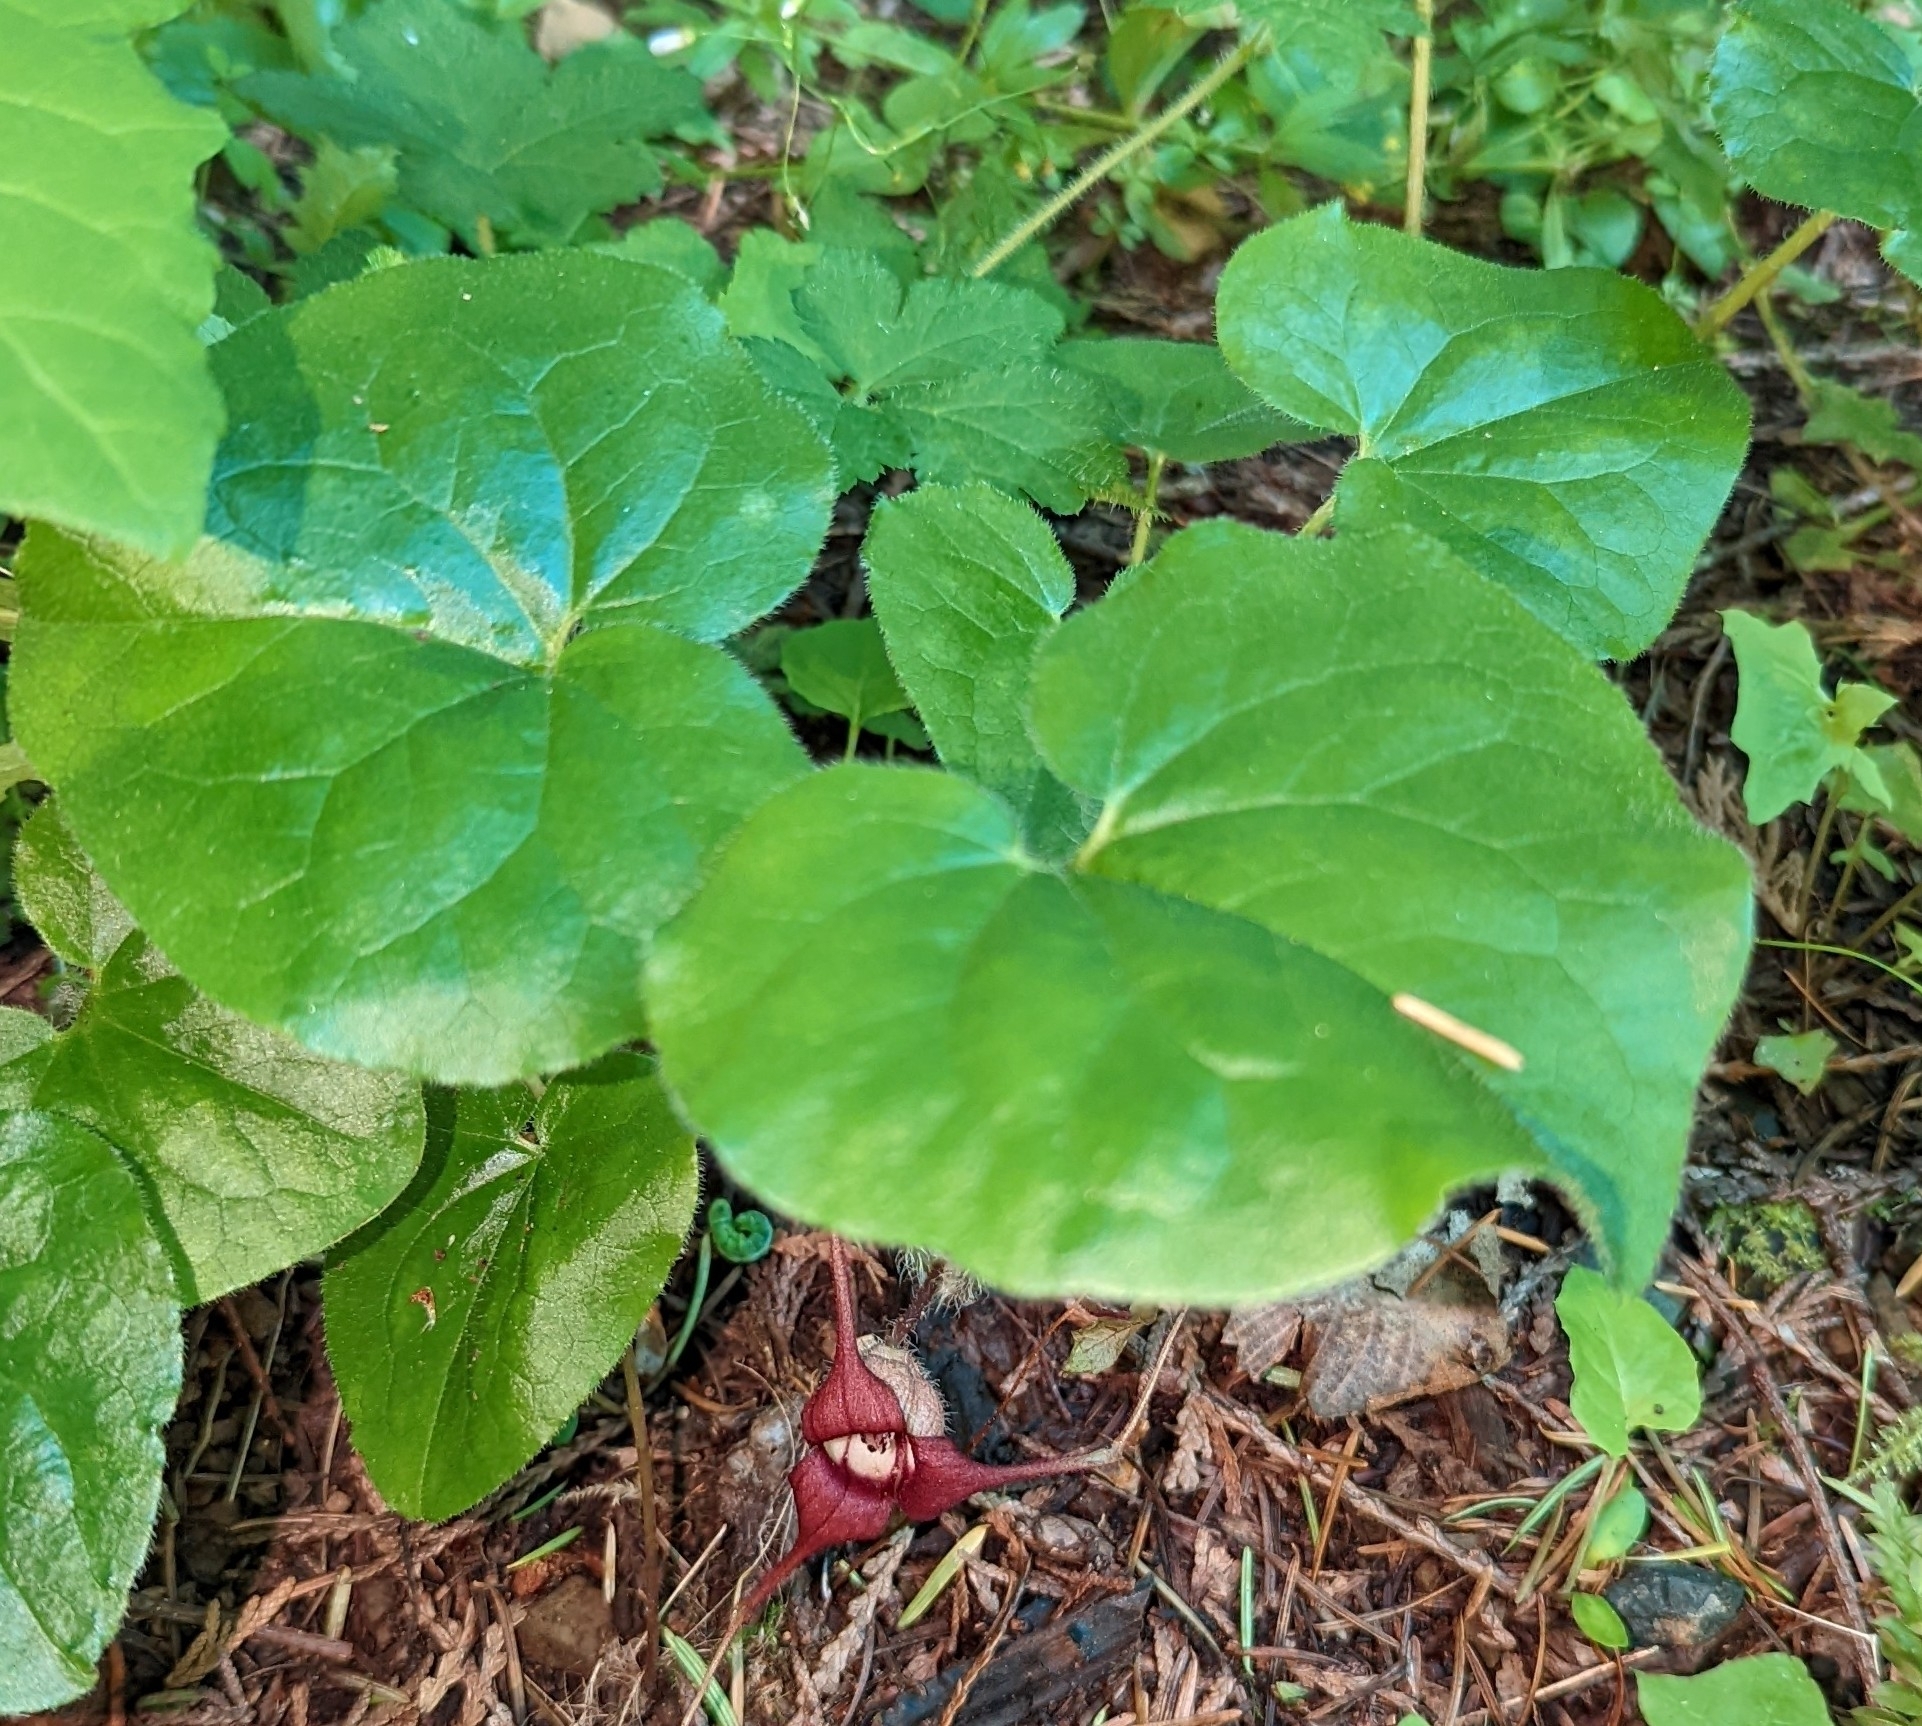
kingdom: Plantae
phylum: Tracheophyta
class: Magnoliopsida
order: Piperales
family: Aristolochiaceae
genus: Asarum
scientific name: Asarum caudatum
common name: Wild ginger
